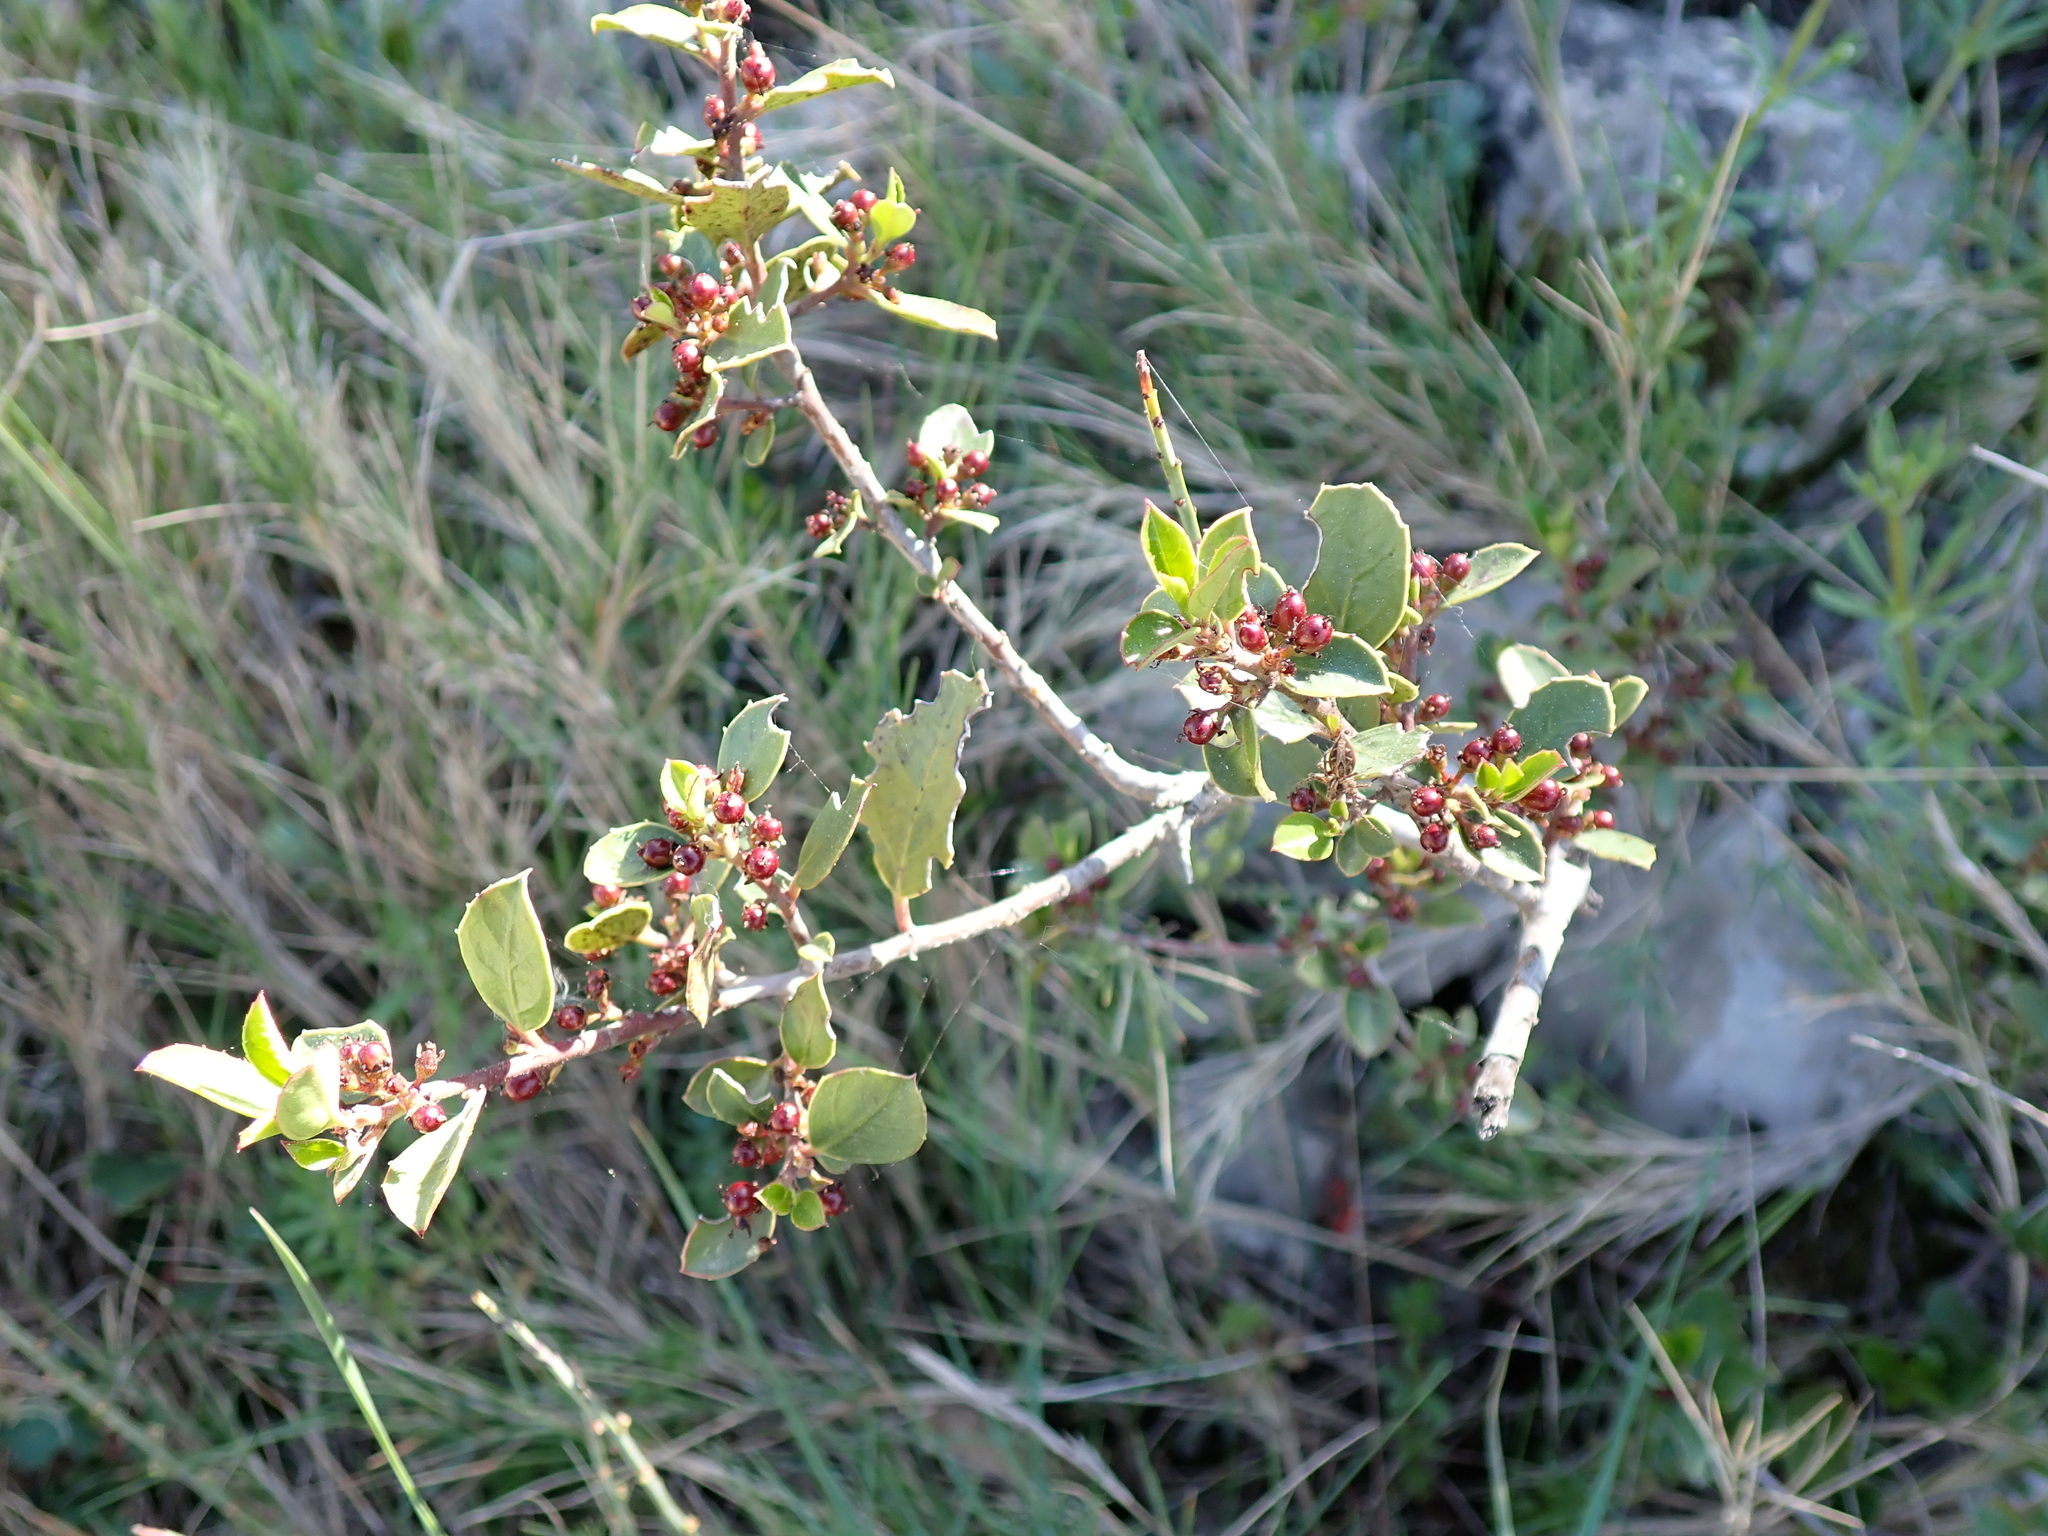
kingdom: Plantae
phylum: Tracheophyta
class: Magnoliopsida
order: Rosales
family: Rhamnaceae
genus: Rhamnus
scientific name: Rhamnus alaternus
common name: Mediterranean buckthorn
